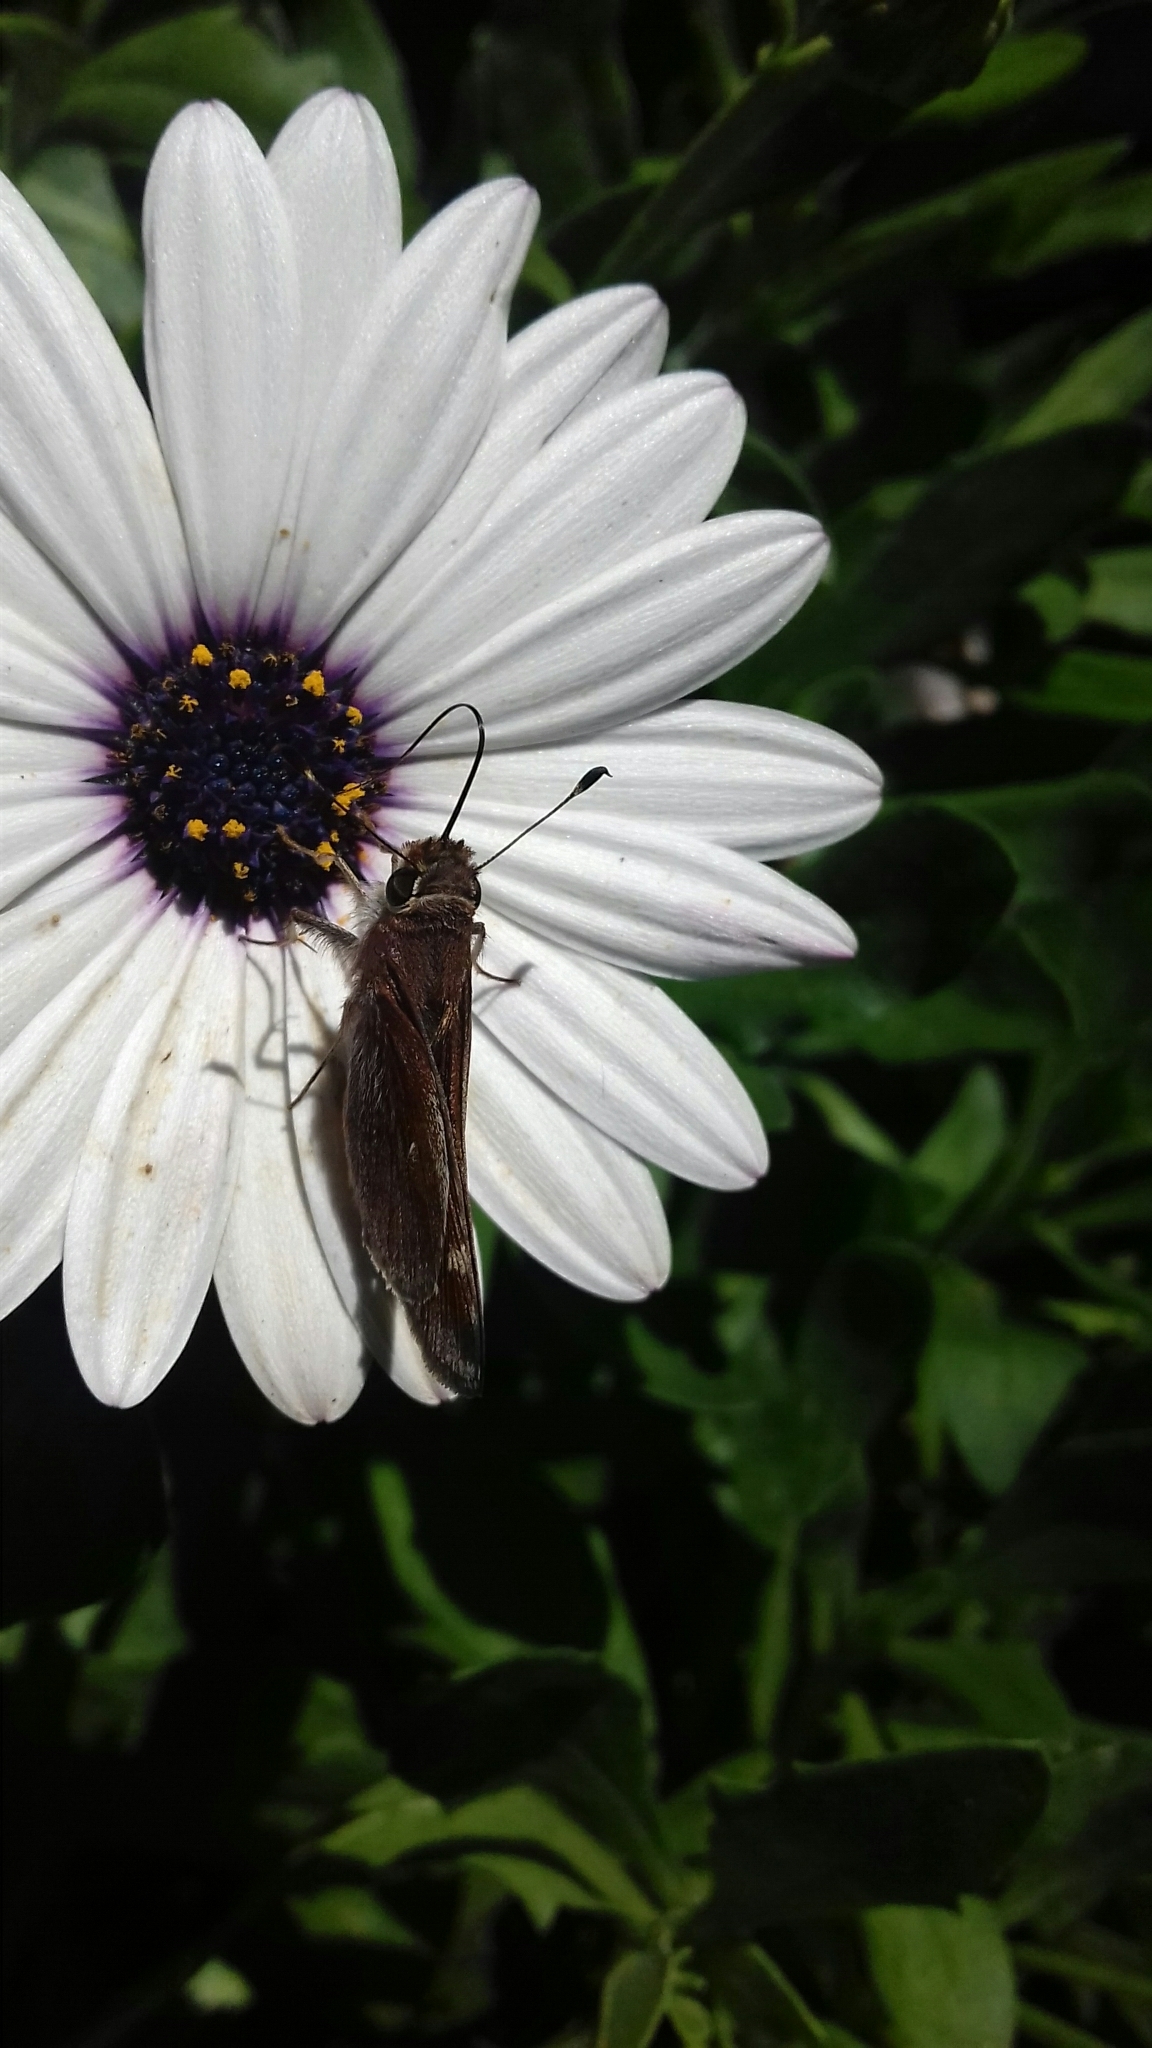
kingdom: Animalia
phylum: Arthropoda
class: Insecta
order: Lepidoptera
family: Hesperiidae
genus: Lon
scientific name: Lon
